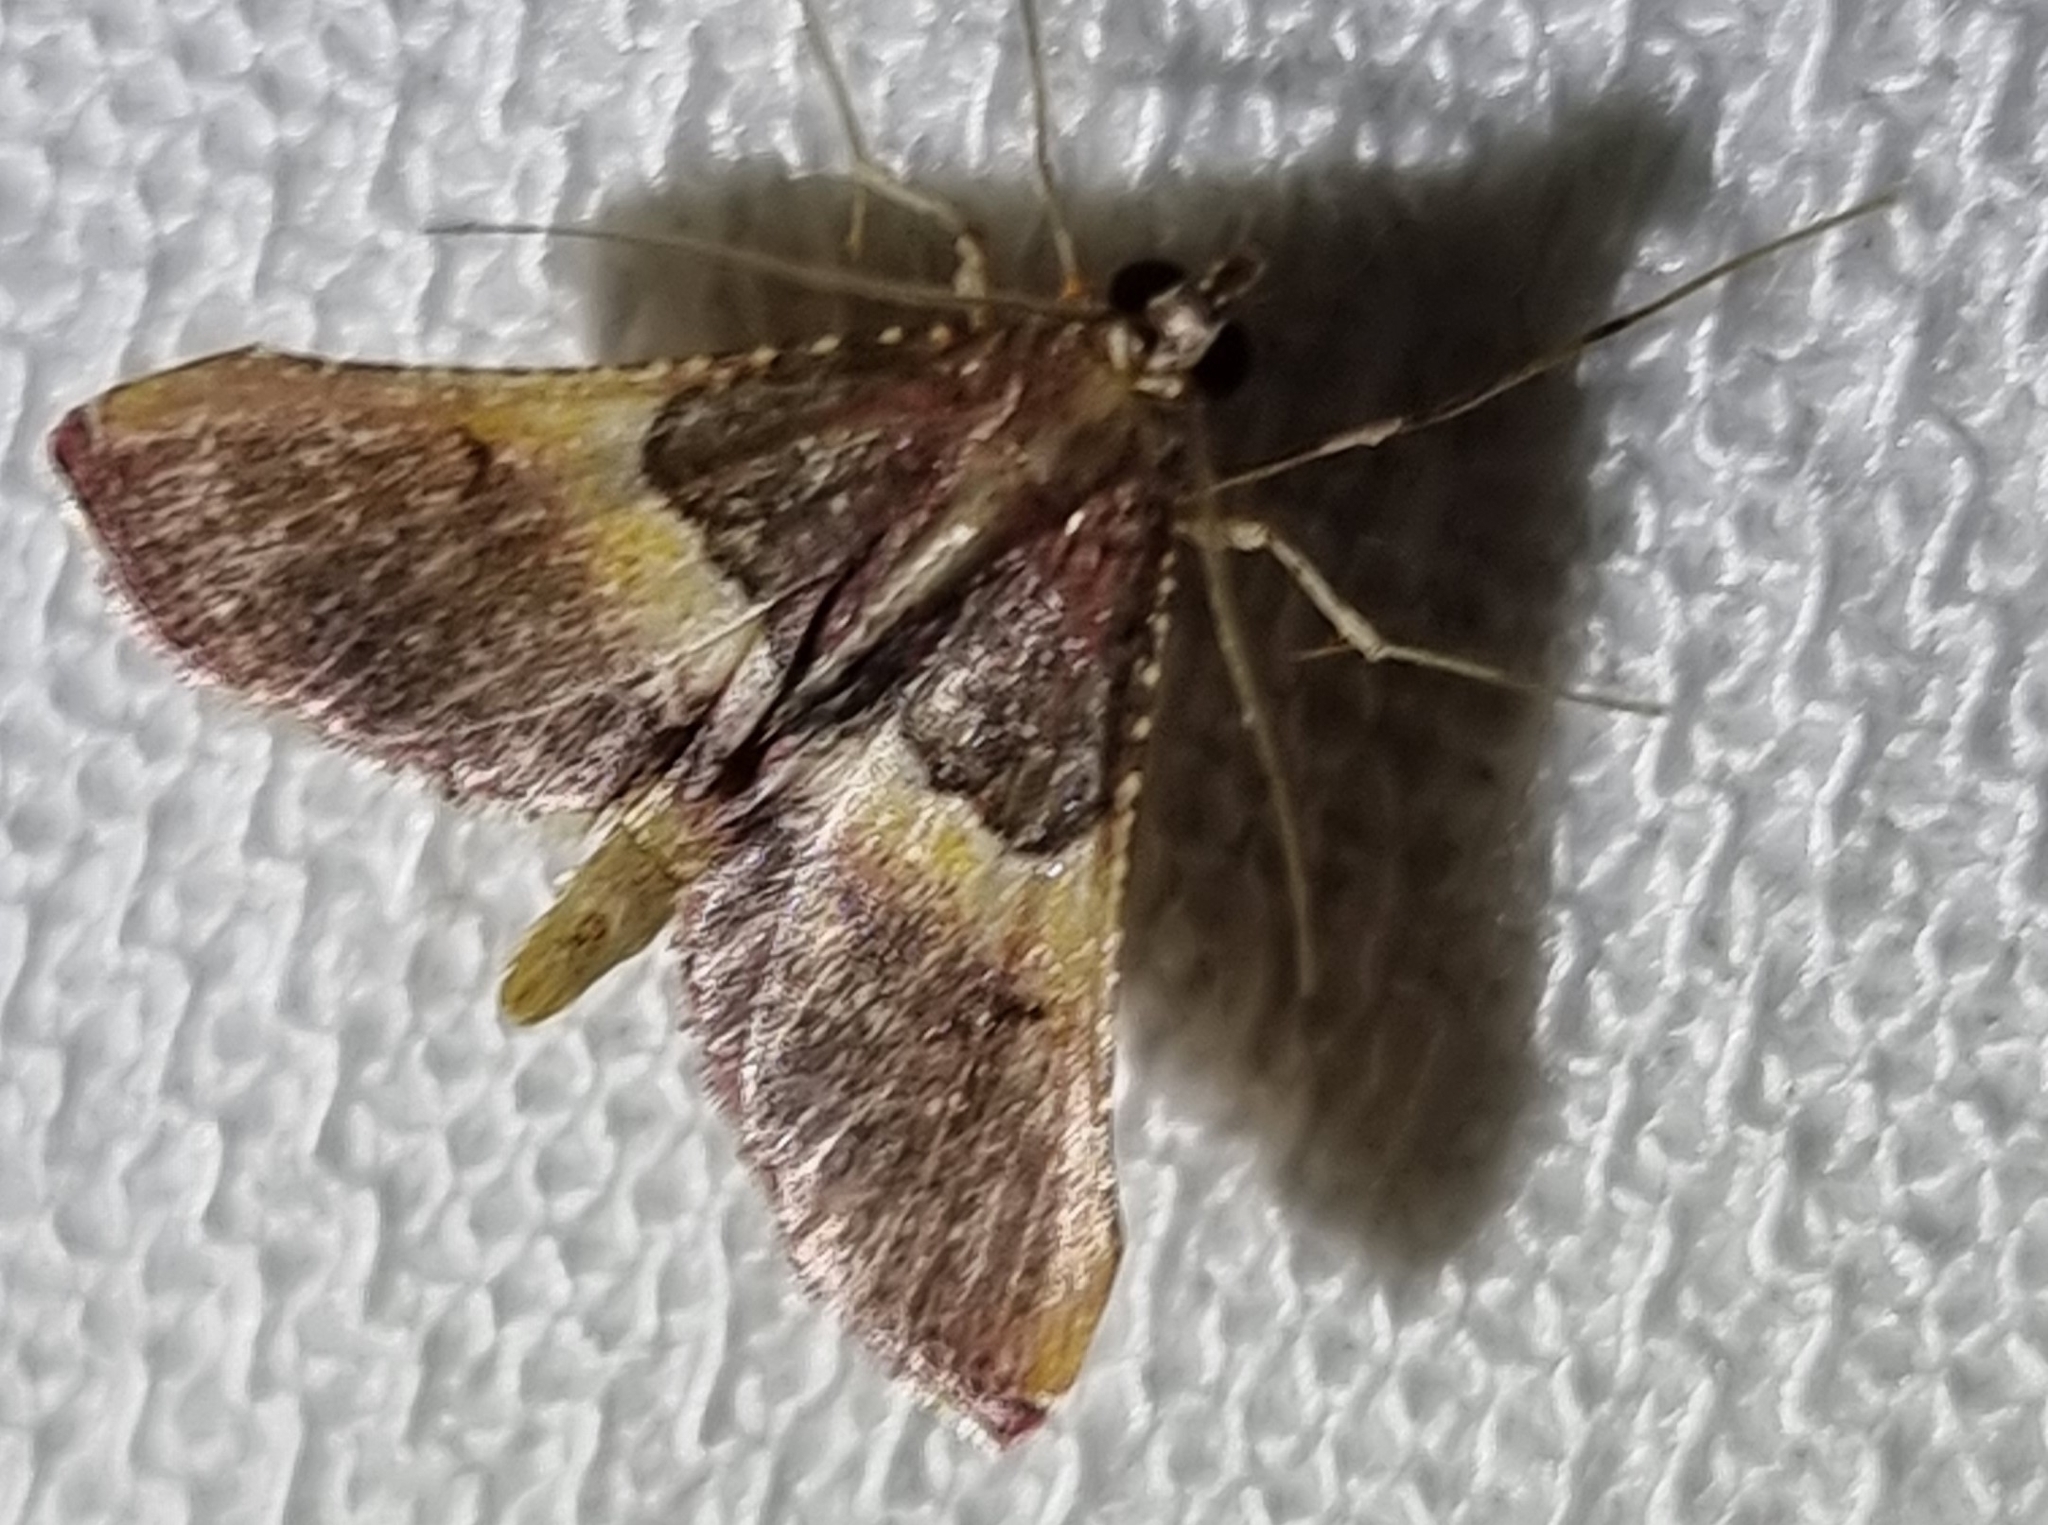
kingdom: Animalia
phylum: Arthropoda
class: Insecta
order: Lepidoptera
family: Pyralidae
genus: Endotricha
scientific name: Endotricha mesenterialis
